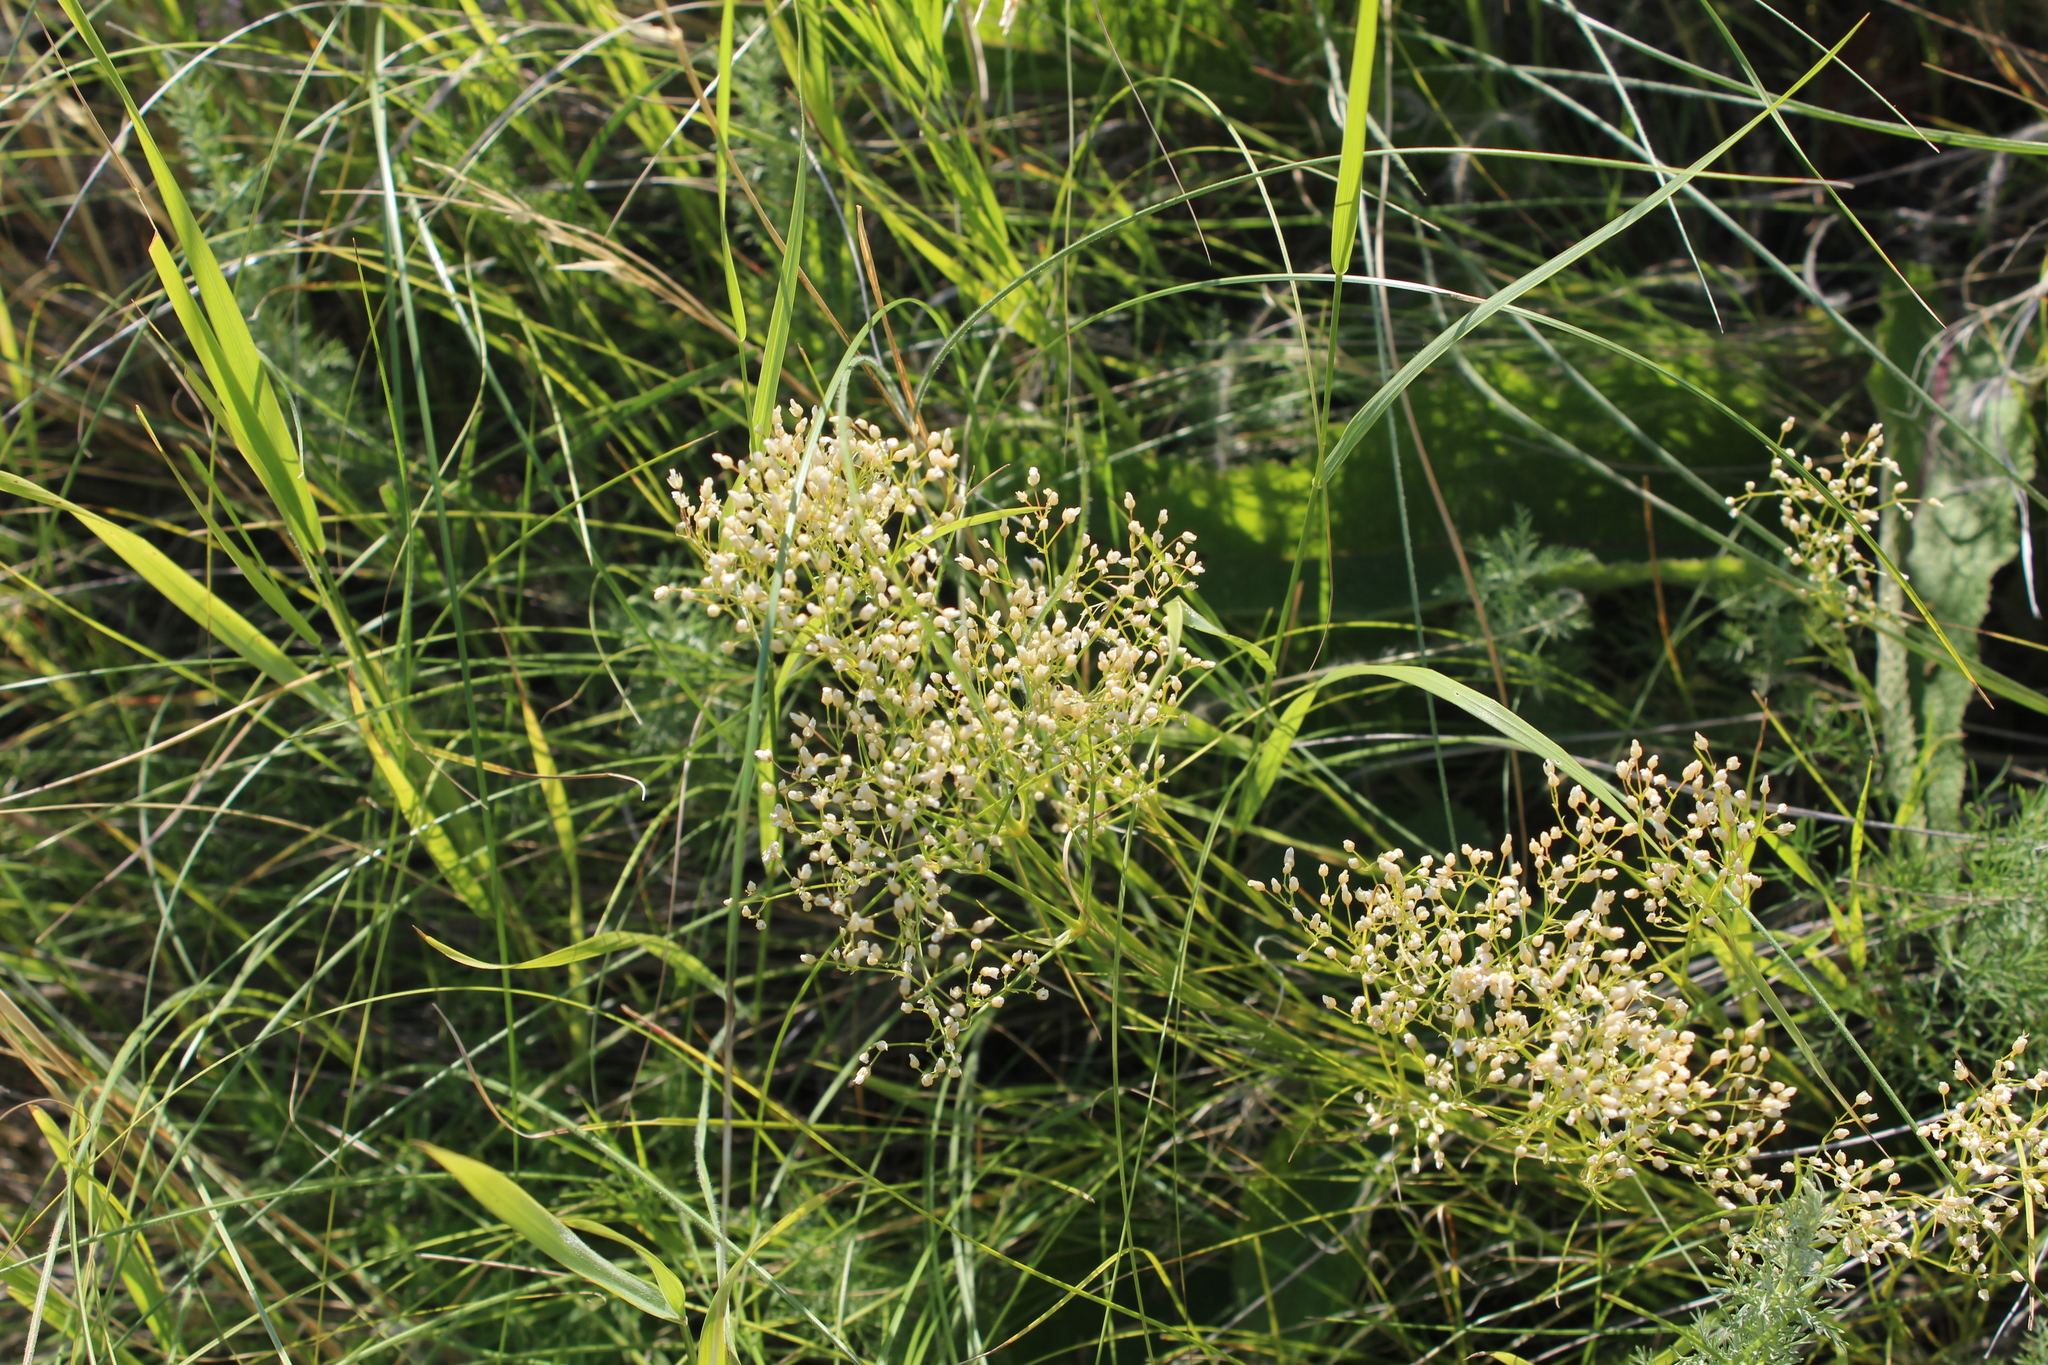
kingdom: Plantae
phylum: Tracheophyta
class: Magnoliopsida
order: Caryophyllales
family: Caryophyllaceae
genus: Eremogone
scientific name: Eremogone longifolia
